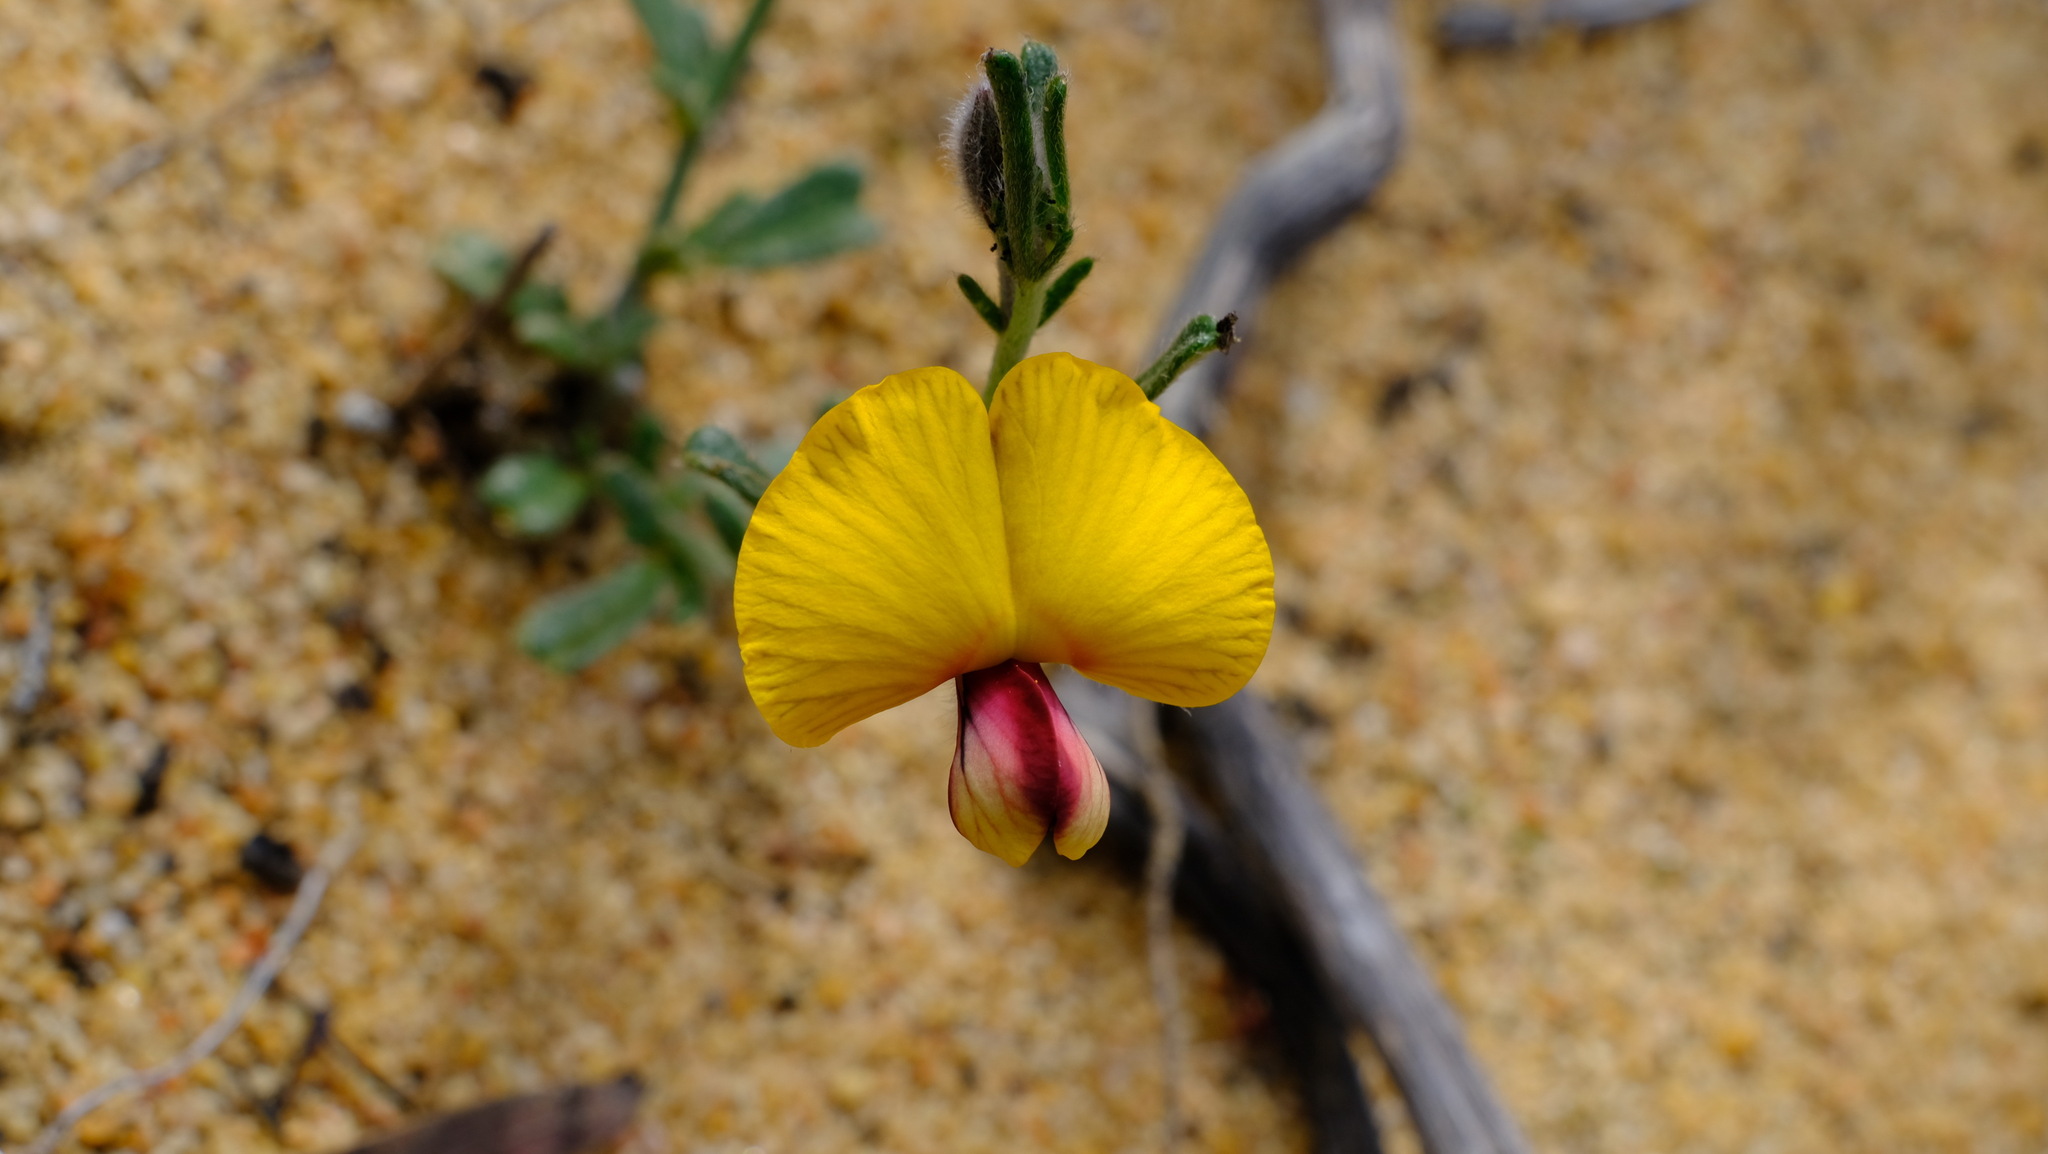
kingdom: Plantae
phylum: Tracheophyta
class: Magnoliopsida
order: Fabales
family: Fabaceae
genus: Isotropis
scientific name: Isotropis cuneifolia
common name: Granny bonnets
